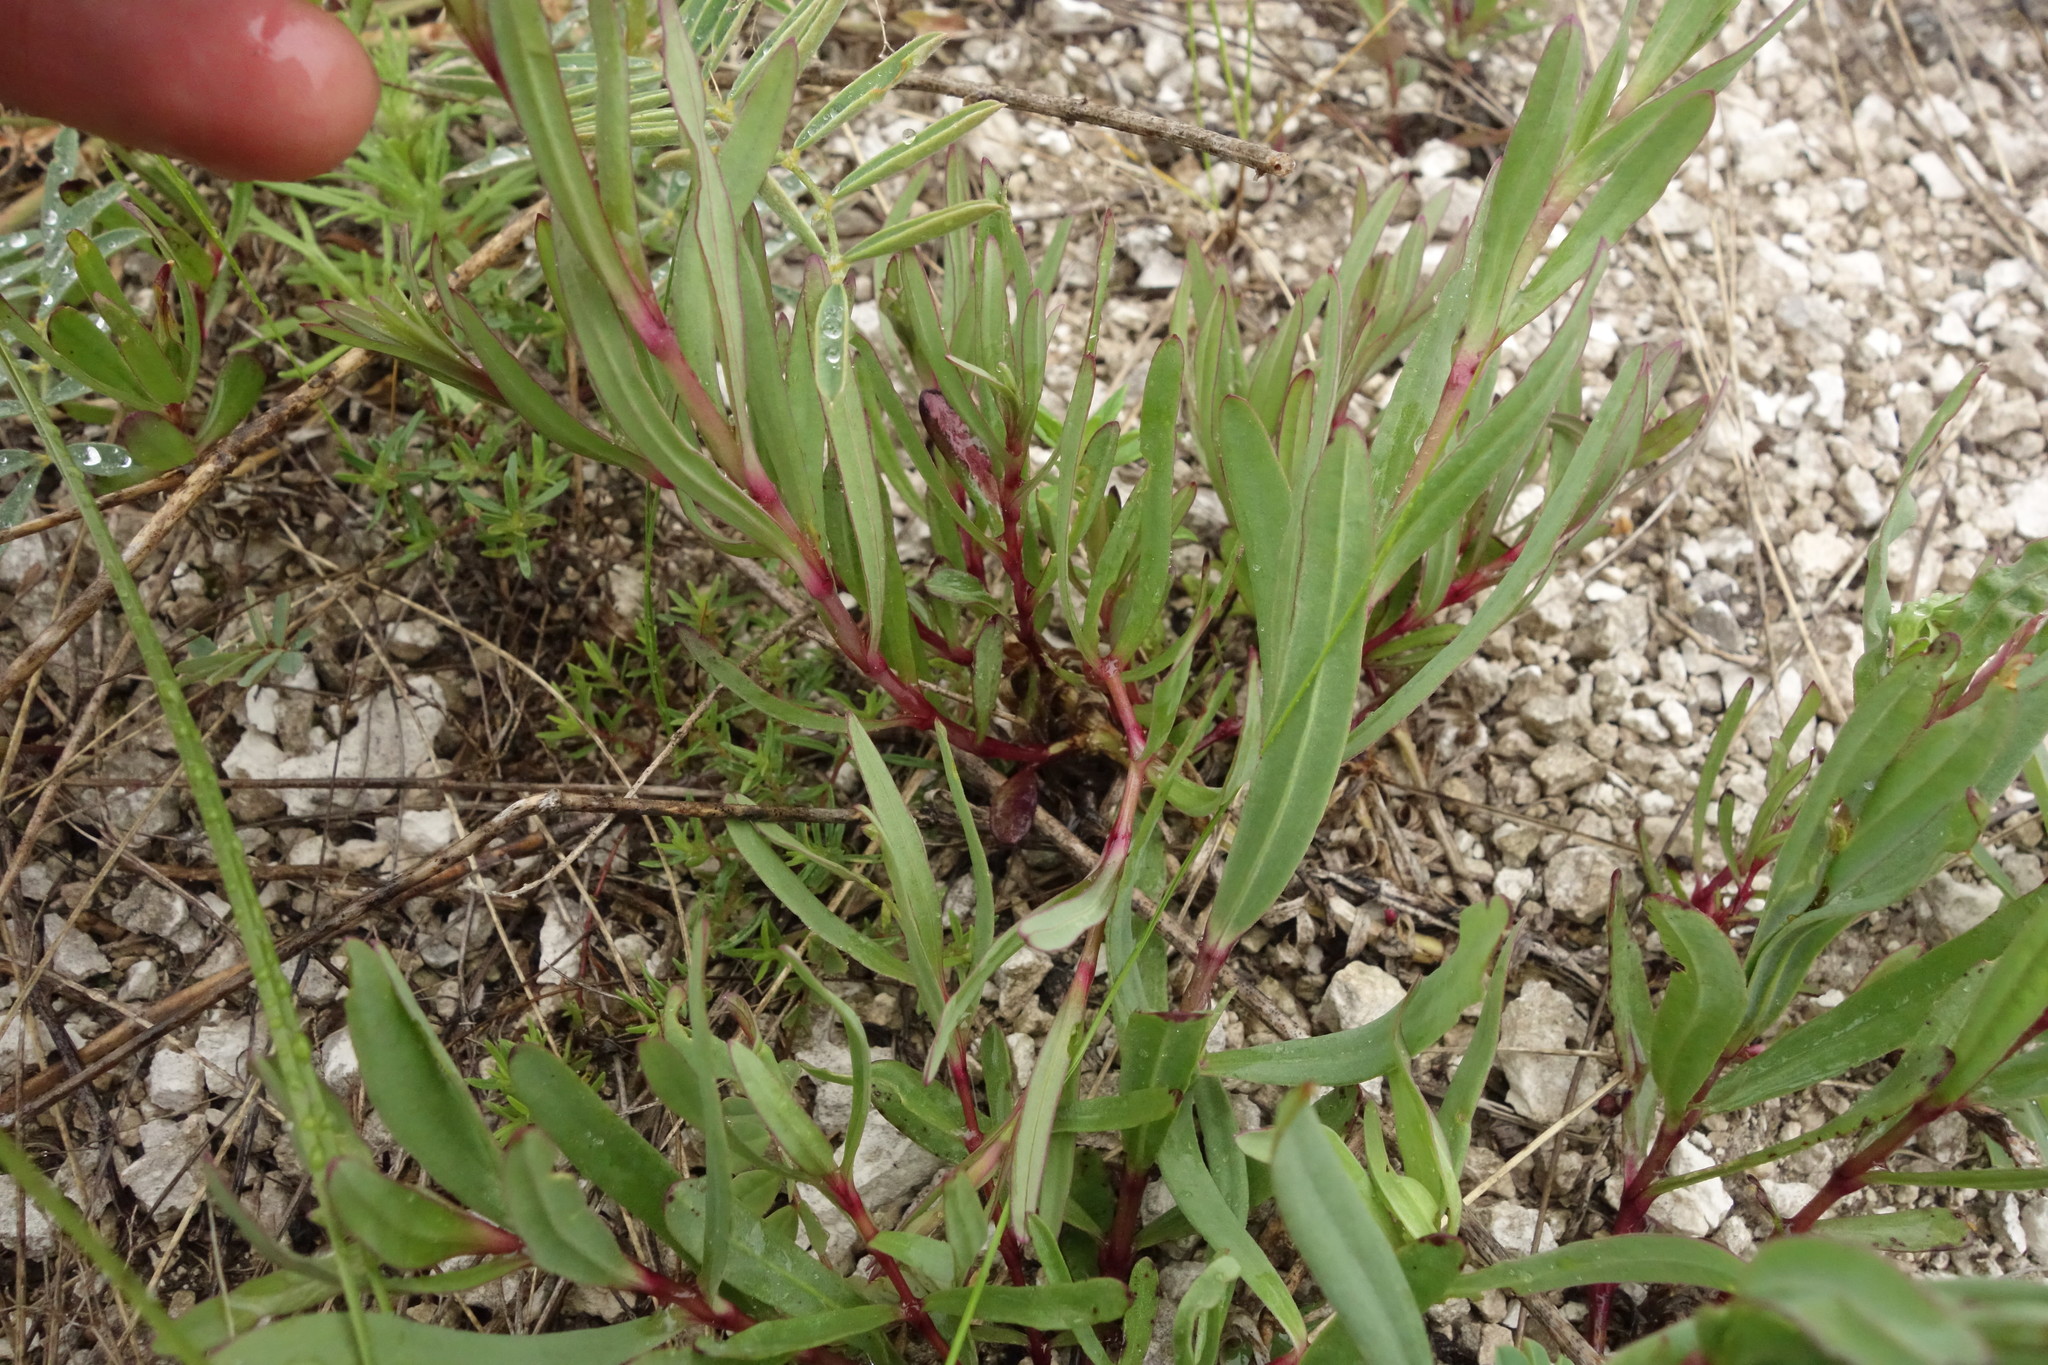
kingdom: Plantae
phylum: Tracheophyta
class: Magnoliopsida
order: Caryophyllales
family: Caryophyllaceae
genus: Gypsophila
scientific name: Gypsophila altissima
